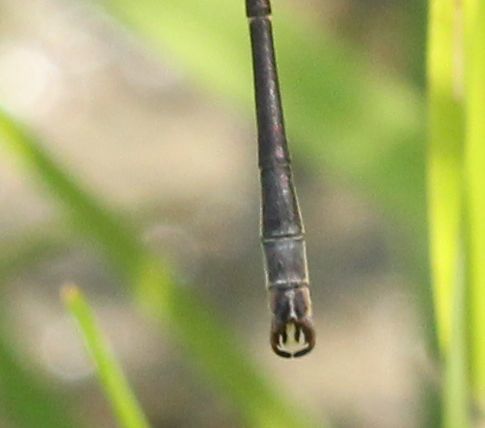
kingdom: Animalia
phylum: Arthropoda
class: Insecta
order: Odonata
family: Lestidae
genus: Lestes
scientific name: Lestes rectangularis
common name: Slender spreadwing
